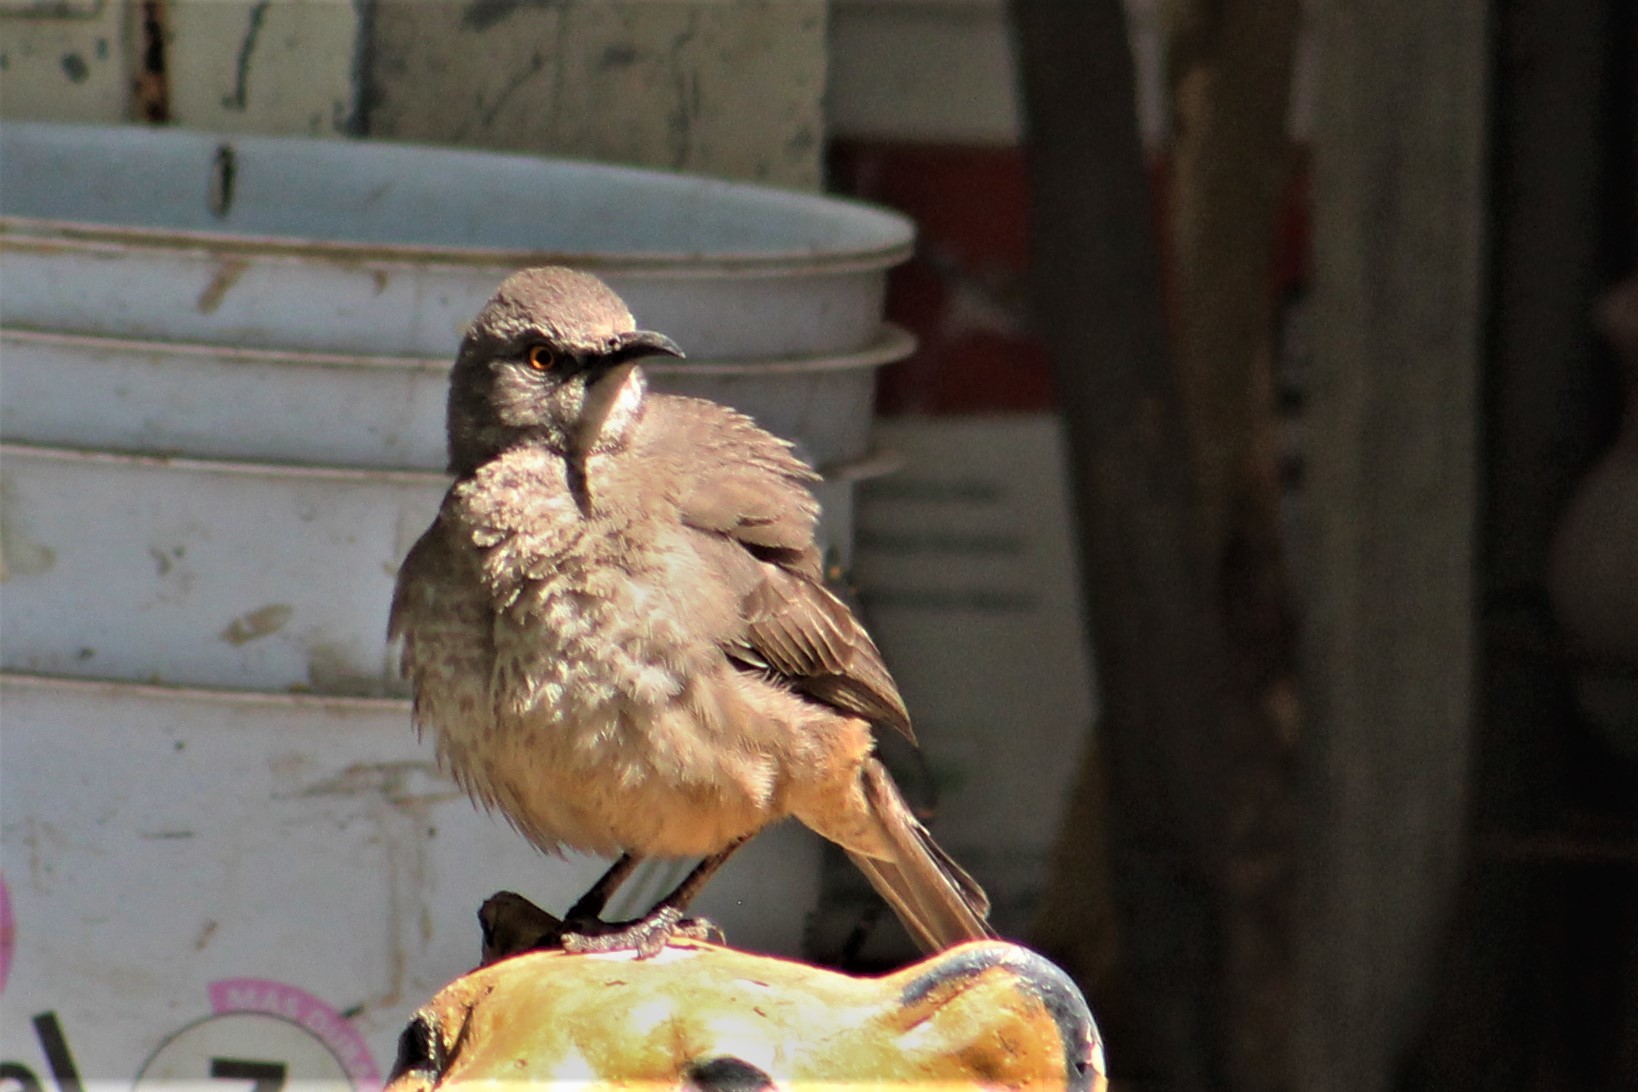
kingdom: Animalia
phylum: Chordata
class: Aves
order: Passeriformes
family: Mimidae
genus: Toxostoma
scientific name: Toxostoma curvirostre
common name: Curve-billed thrasher
